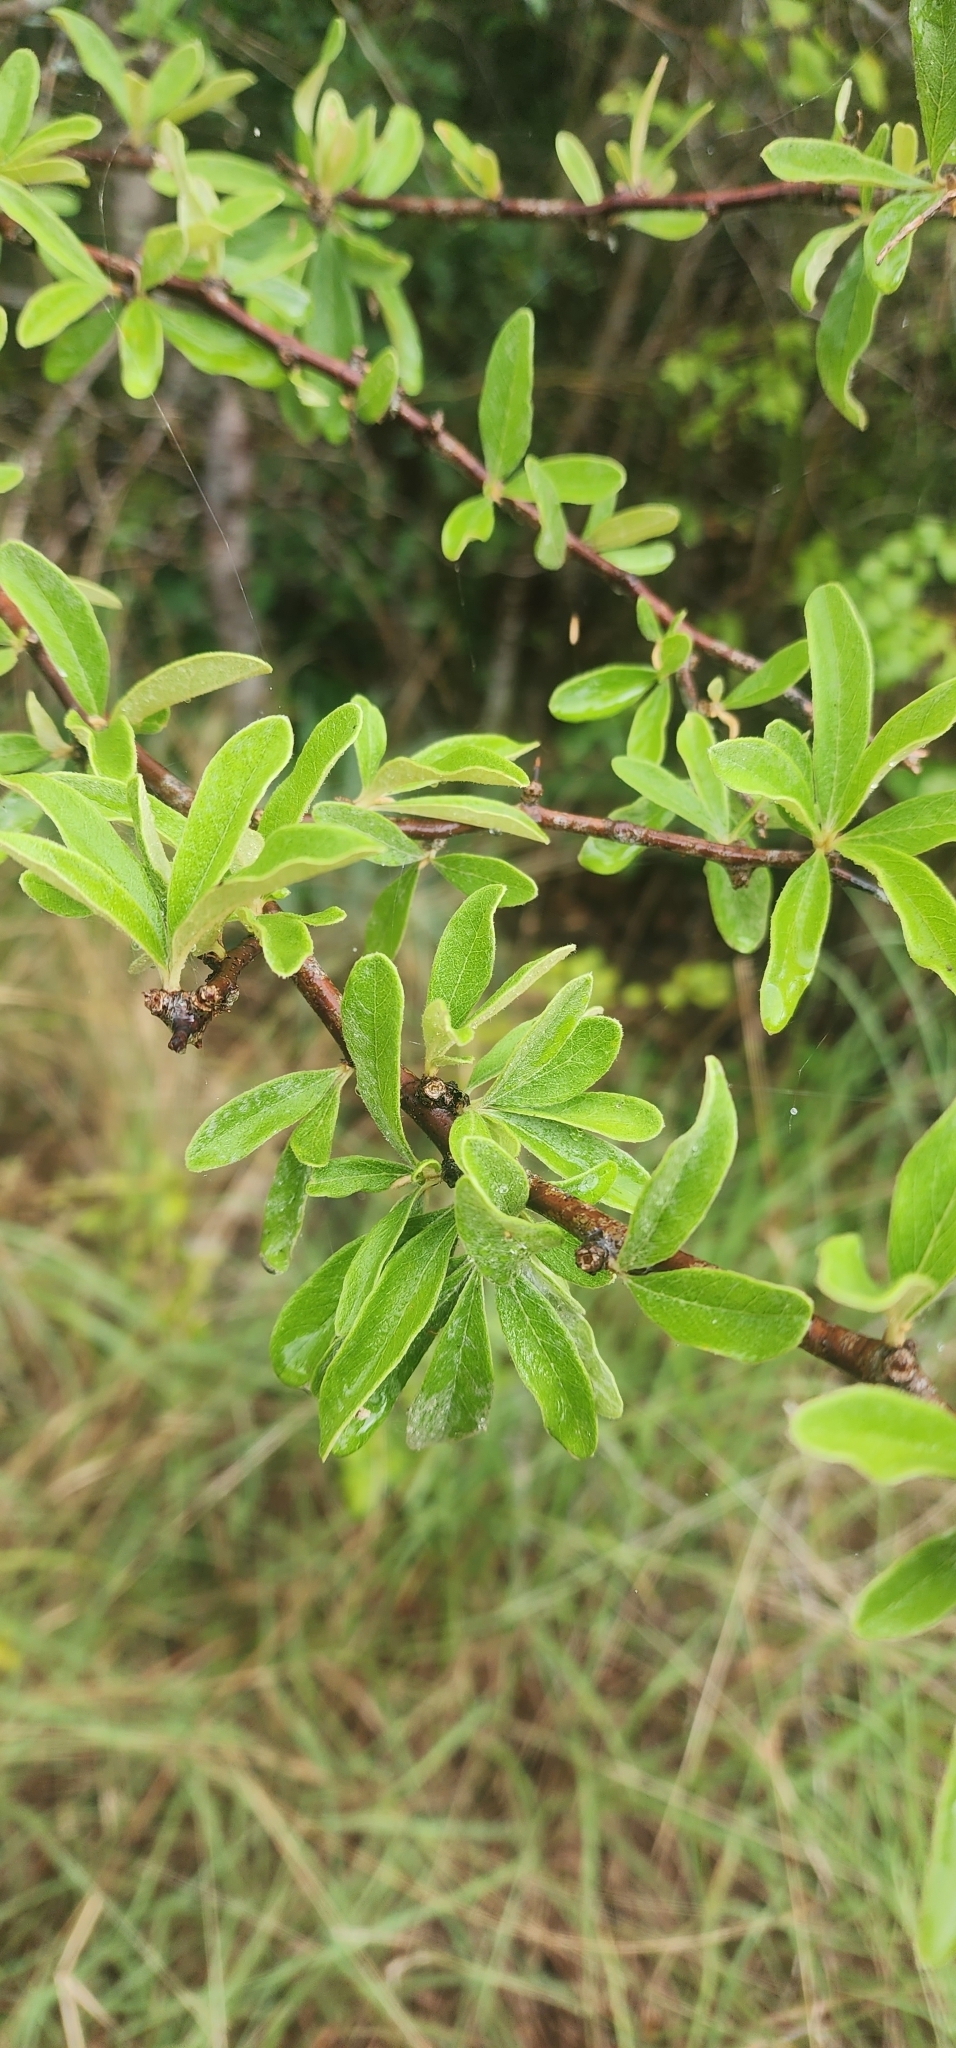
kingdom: Plantae
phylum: Tracheophyta
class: Magnoliopsida
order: Ericales
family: Sapotaceae
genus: Sideroxylon
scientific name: Sideroxylon lanuginosum
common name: Chittamwood
